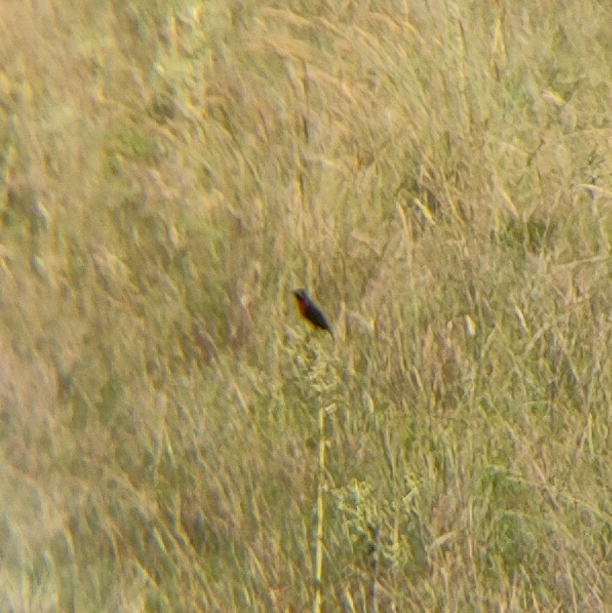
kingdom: Animalia
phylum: Chordata
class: Aves
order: Passeriformes
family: Icteridae
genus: Sturnella
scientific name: Sturnella superciliaris
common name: White-browed blackbird
